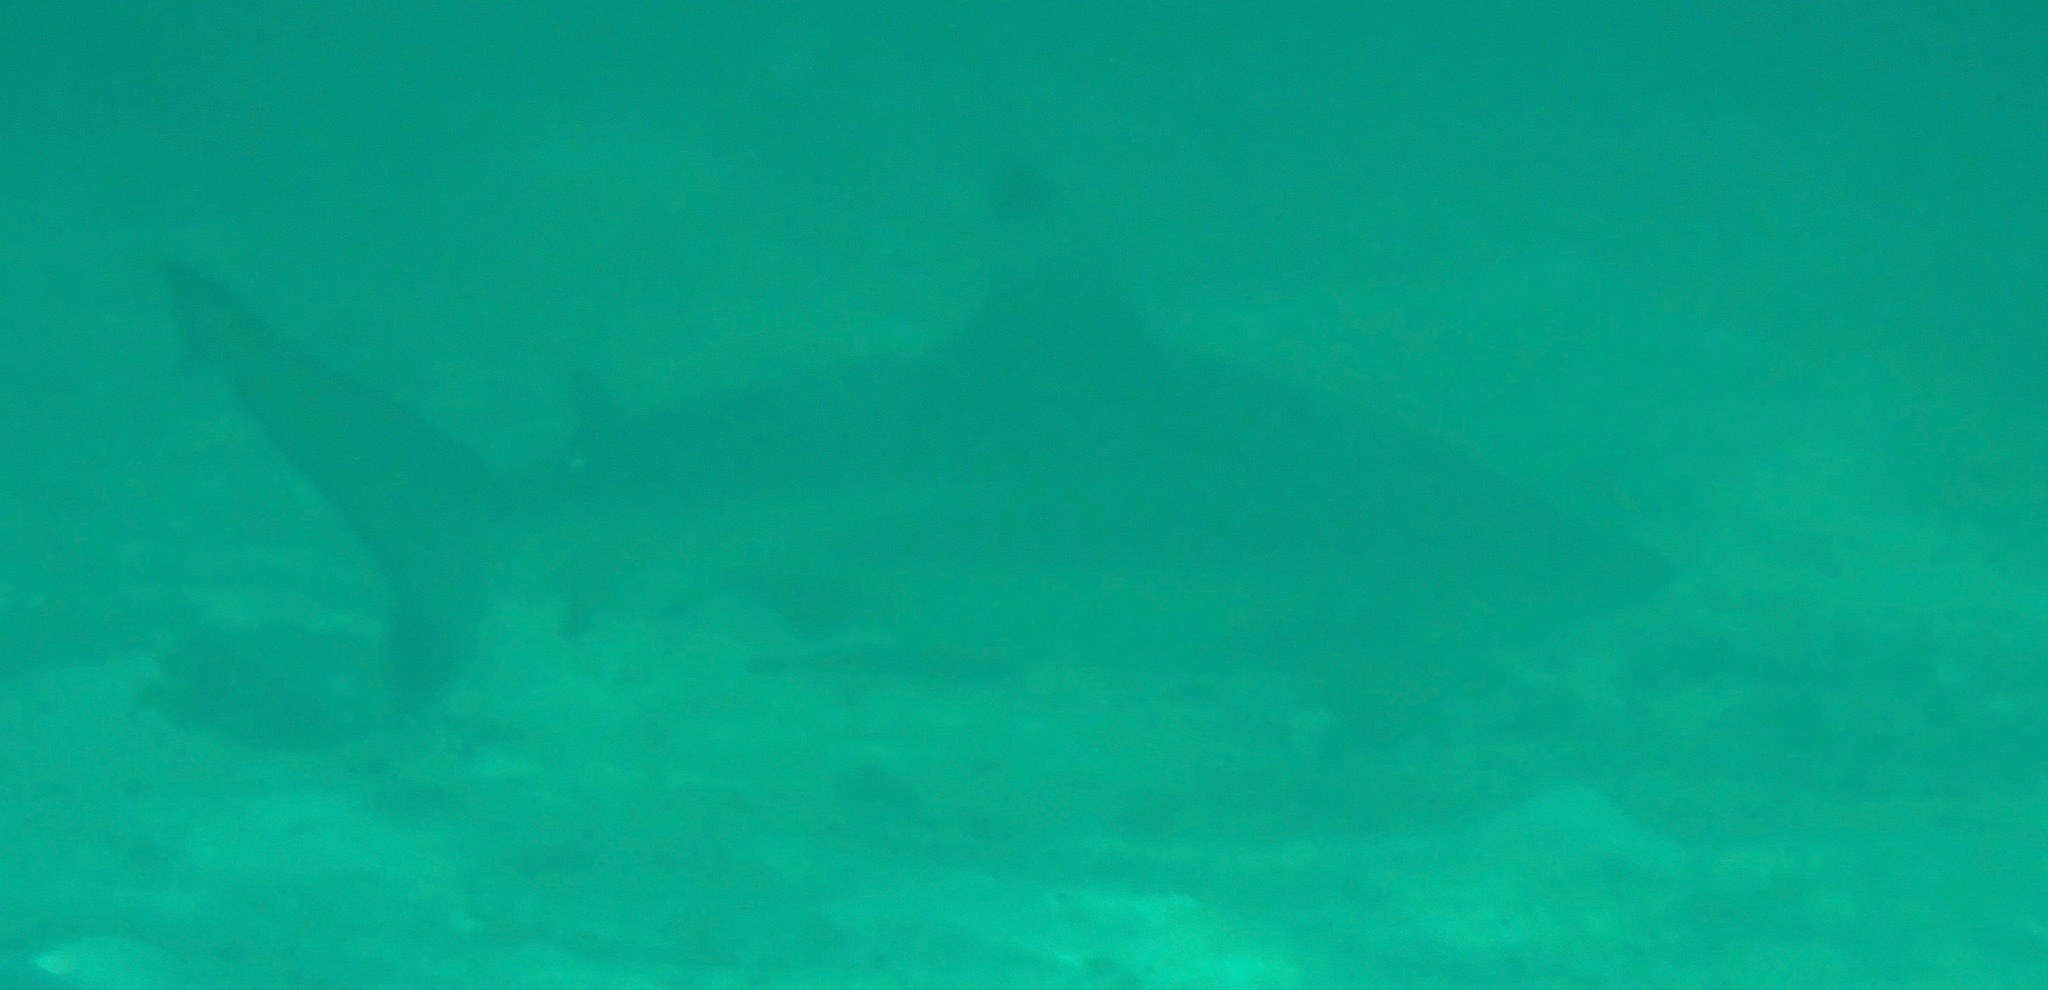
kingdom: Animalia
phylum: Chordata
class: Elasmobranchii
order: Carcharhiniformes
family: Carcharhinidae
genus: Carcharhinus
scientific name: Carcharhinus melanopterus
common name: Blacktip reef shark
